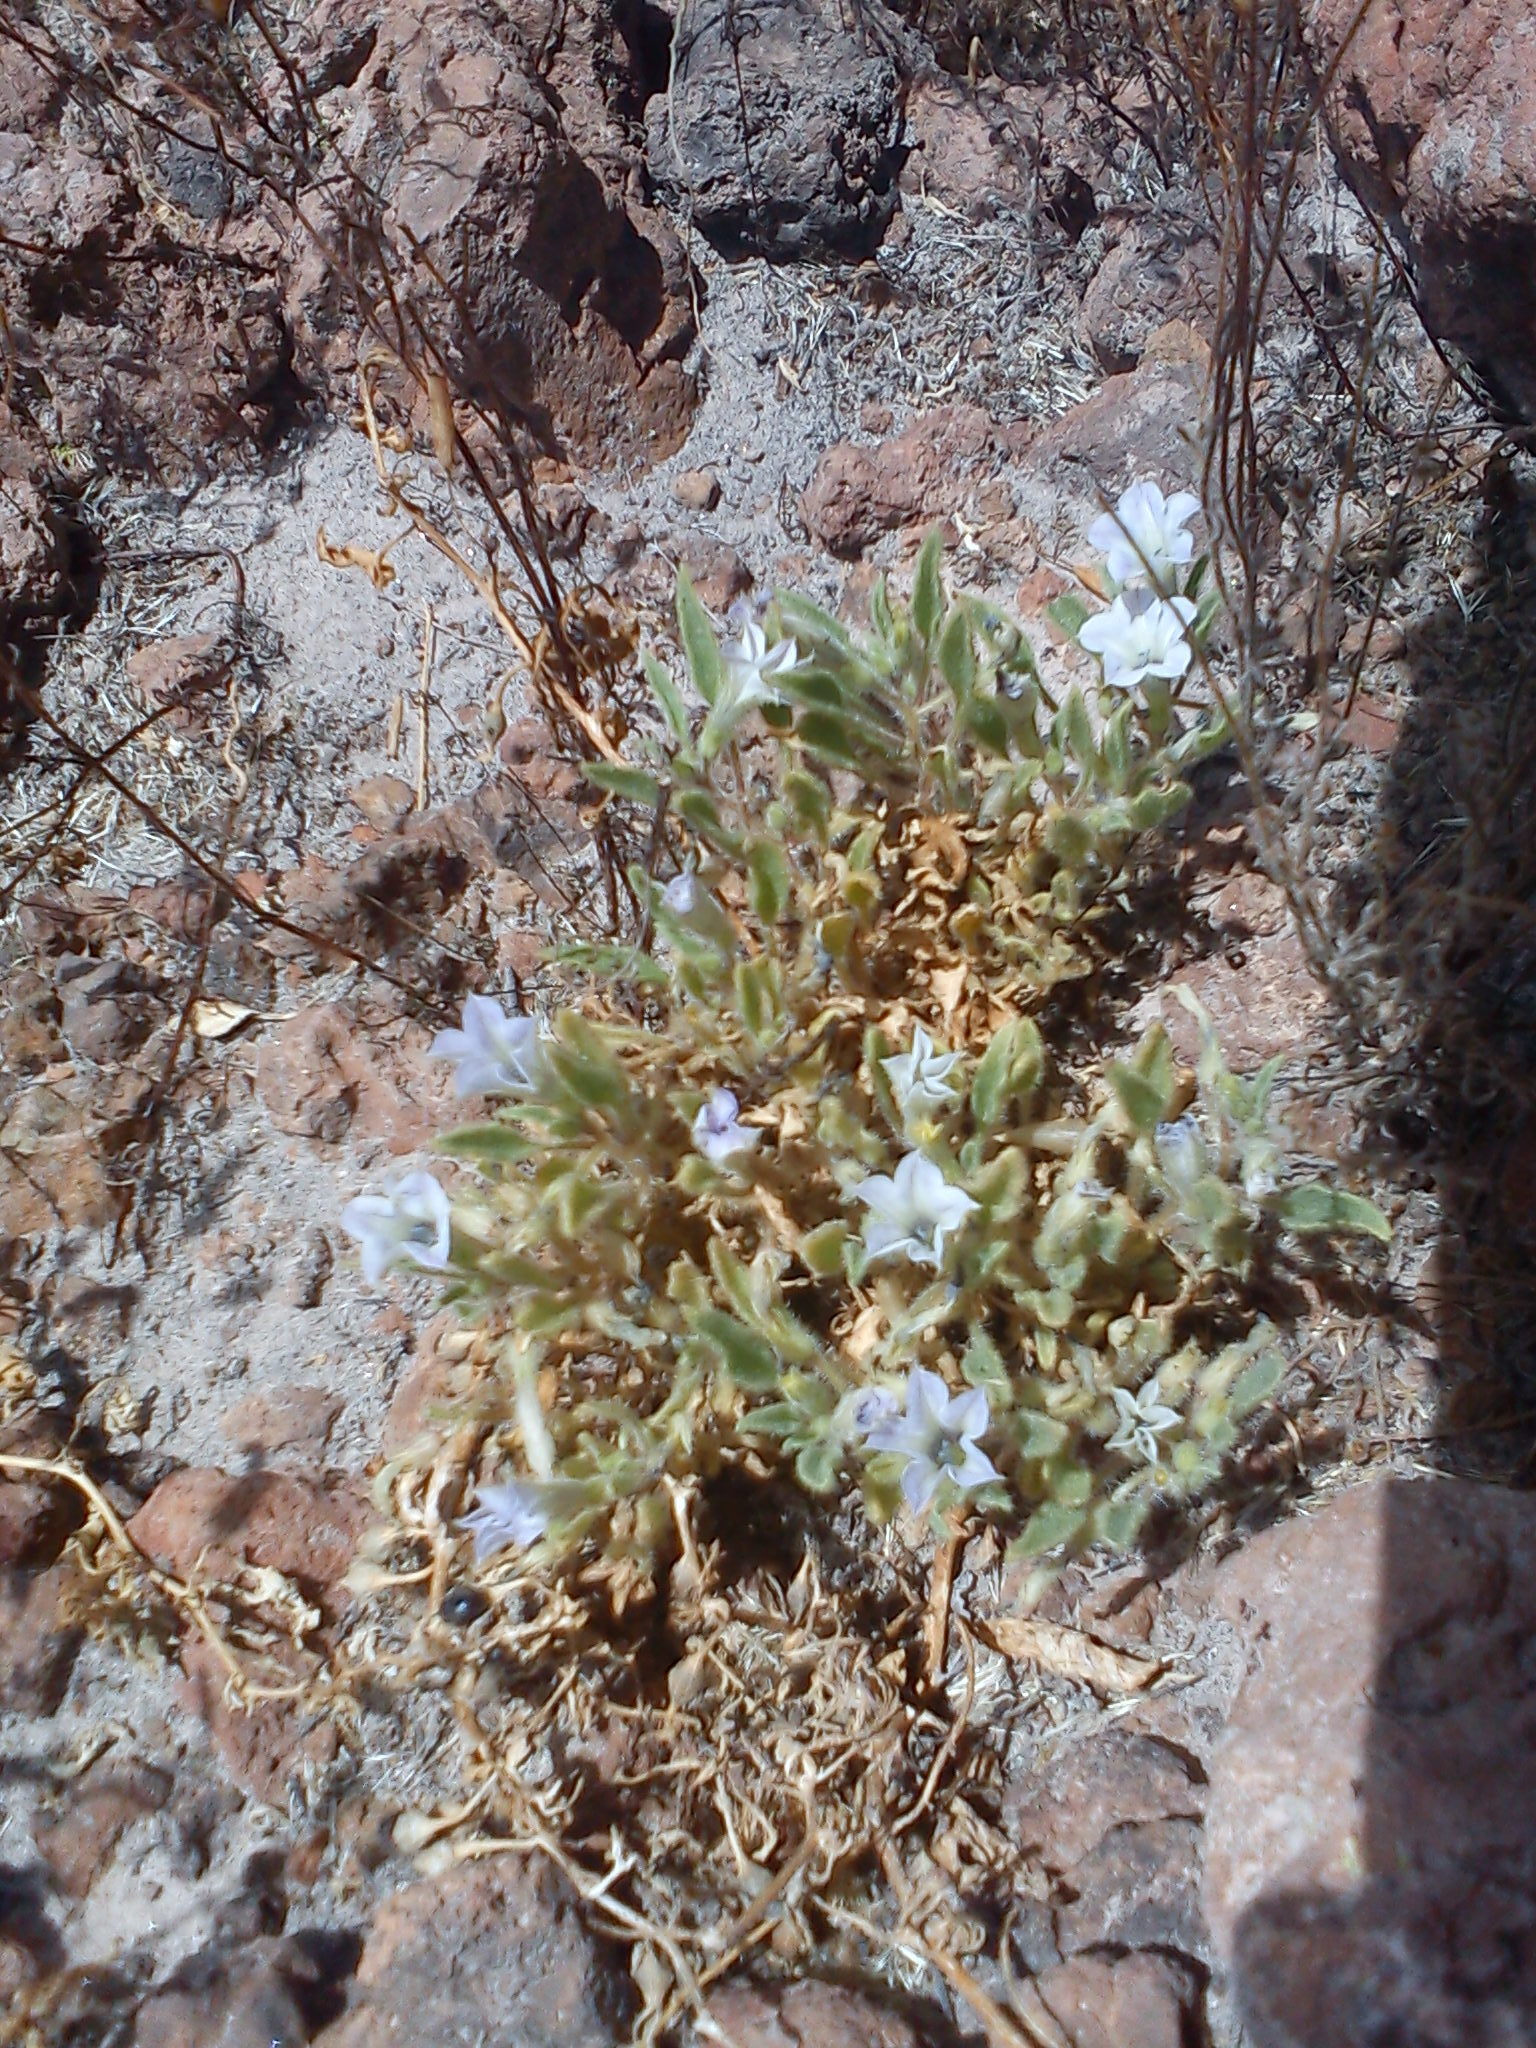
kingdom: Plantae
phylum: Tracheophyta
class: Magnoliopsida
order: Solanales
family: Solanaceae
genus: Exodeconus
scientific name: Exodeconus pusillus
